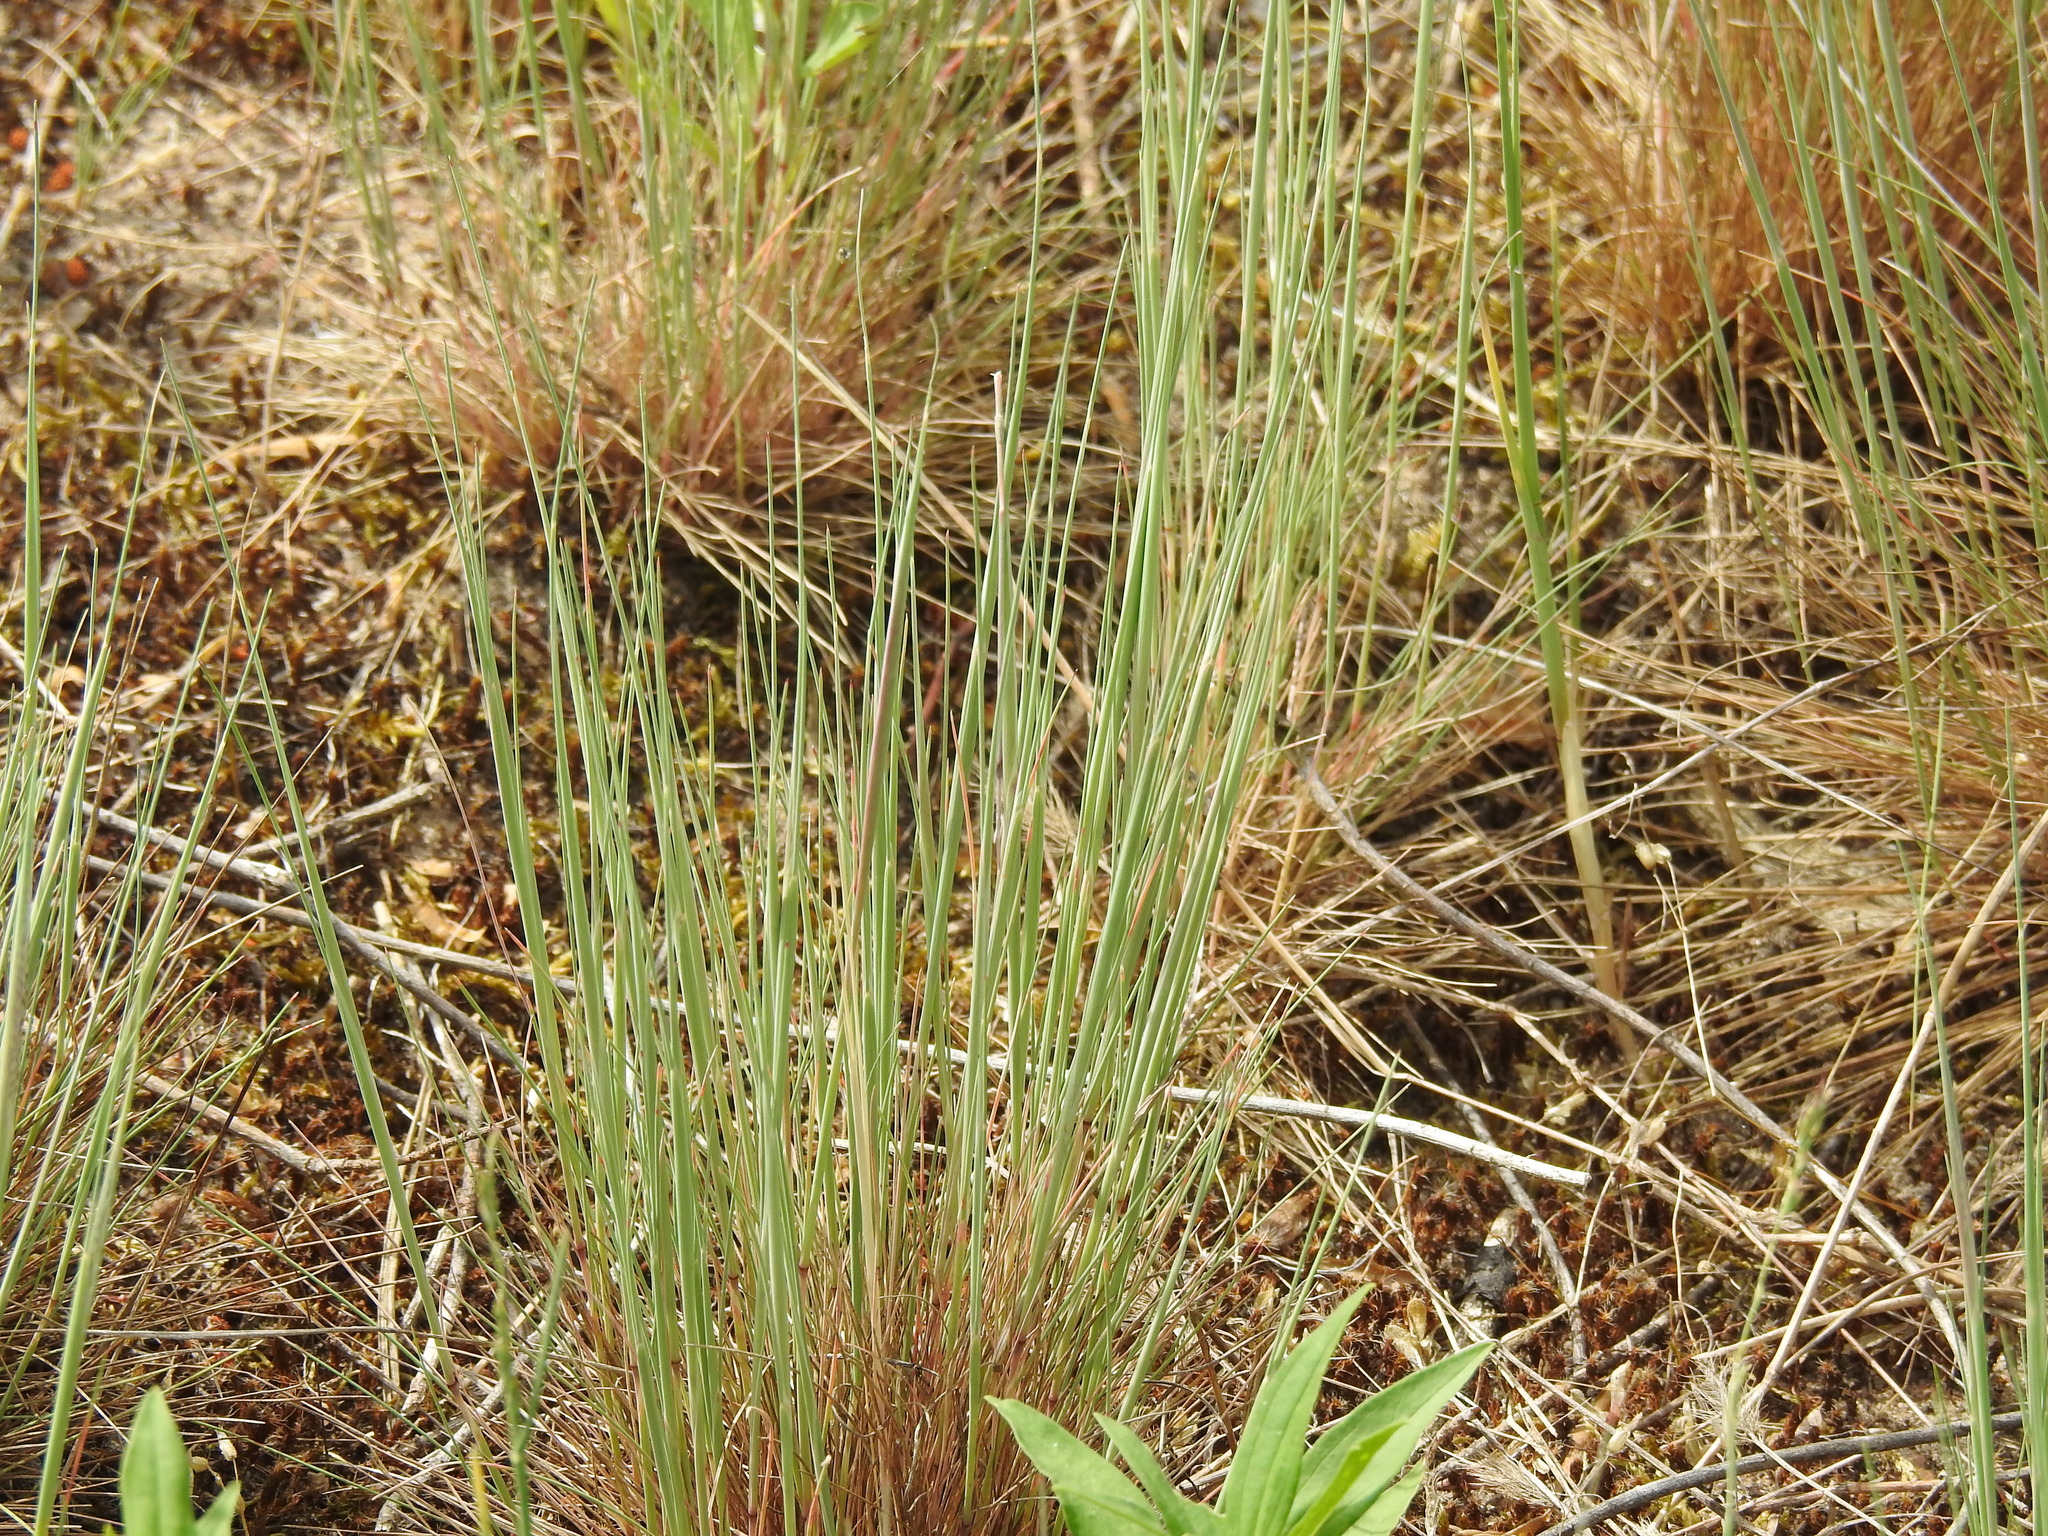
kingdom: Plantae
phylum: Tracheophyta
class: Liliopsida
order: Poales
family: Poaceae
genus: Corynephorus
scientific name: Corynephorus canescens
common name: Grey hair-grass
